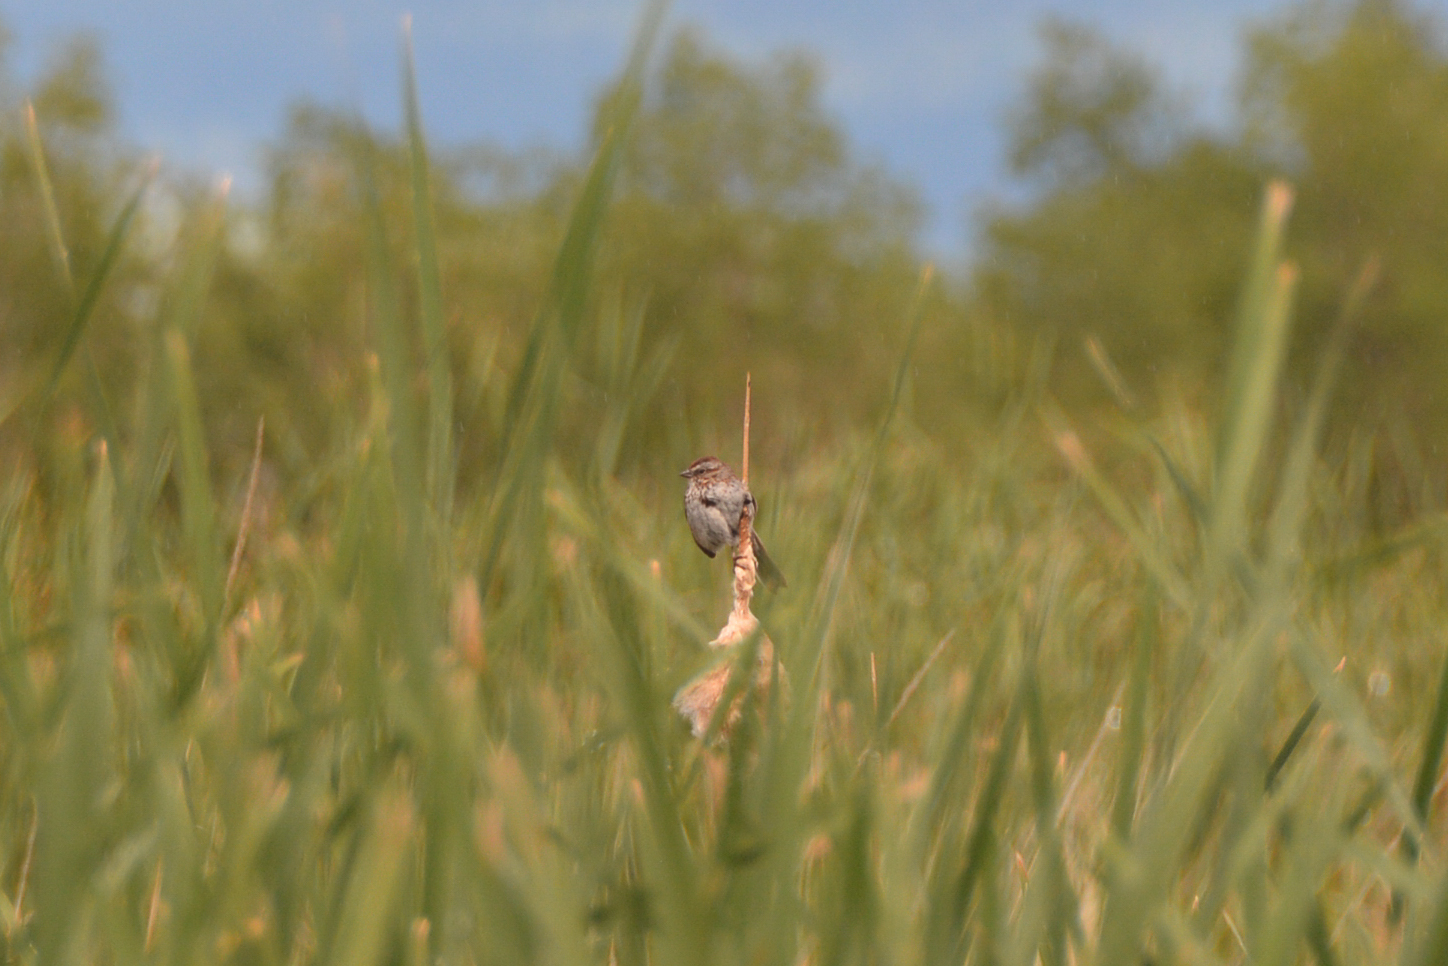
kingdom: Animalia
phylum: Chordata
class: Aves
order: Passeriformes
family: Passerellidae
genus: Melospiza
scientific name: Melospiza melodia
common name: Song sparrow
